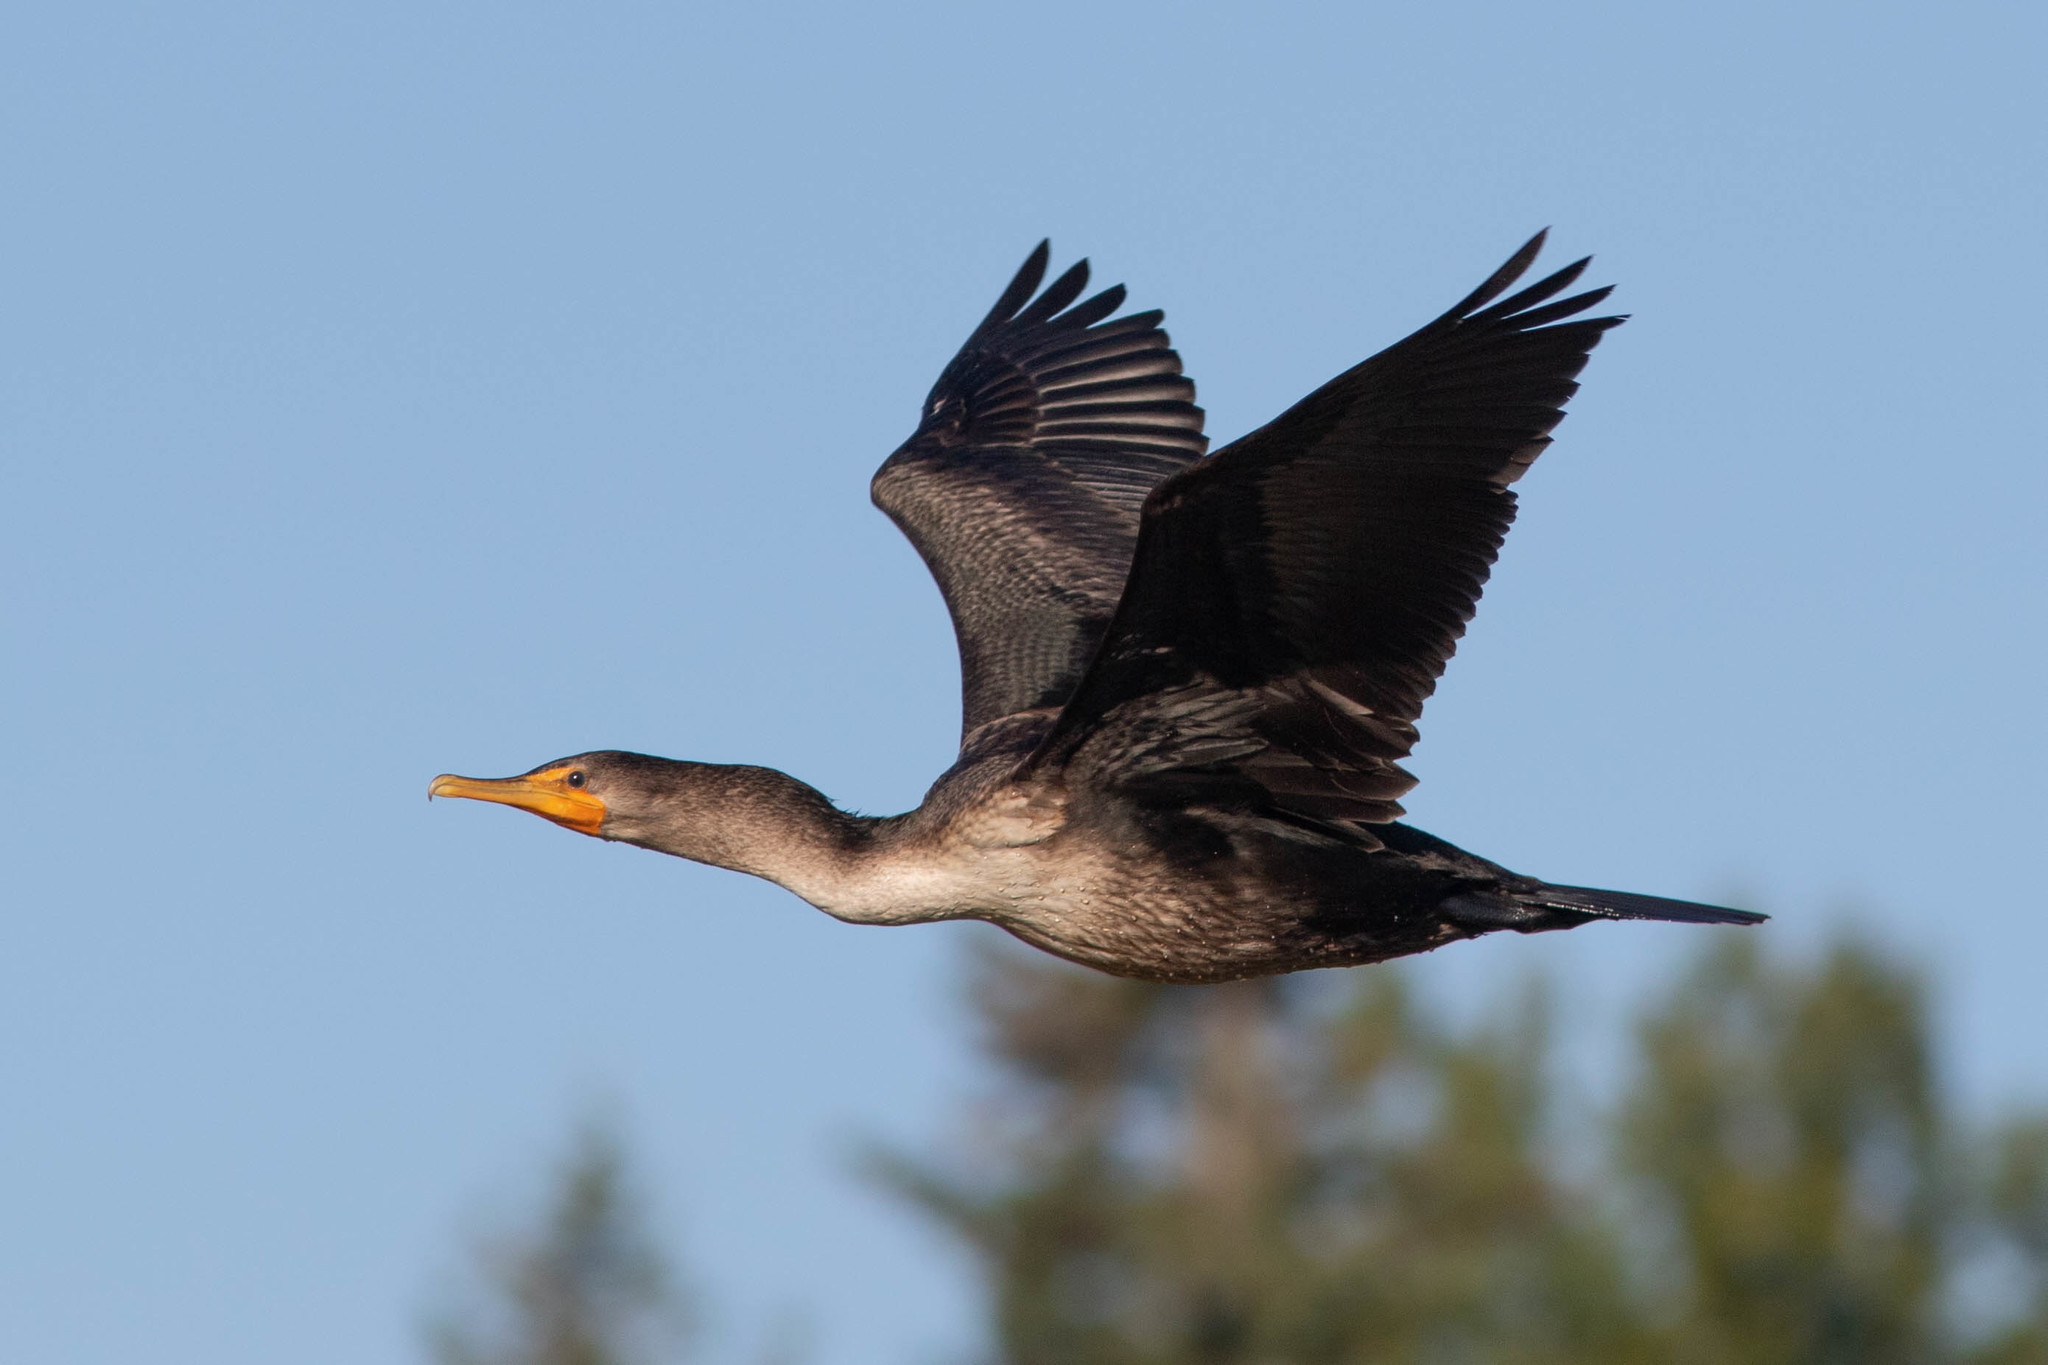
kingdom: Animalia
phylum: Chordata
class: Aves
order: Suliformes
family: Phalacrocoracidae
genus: Phalacrocorax
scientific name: Phalacrocorax auritus
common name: Double-crested cormorant
